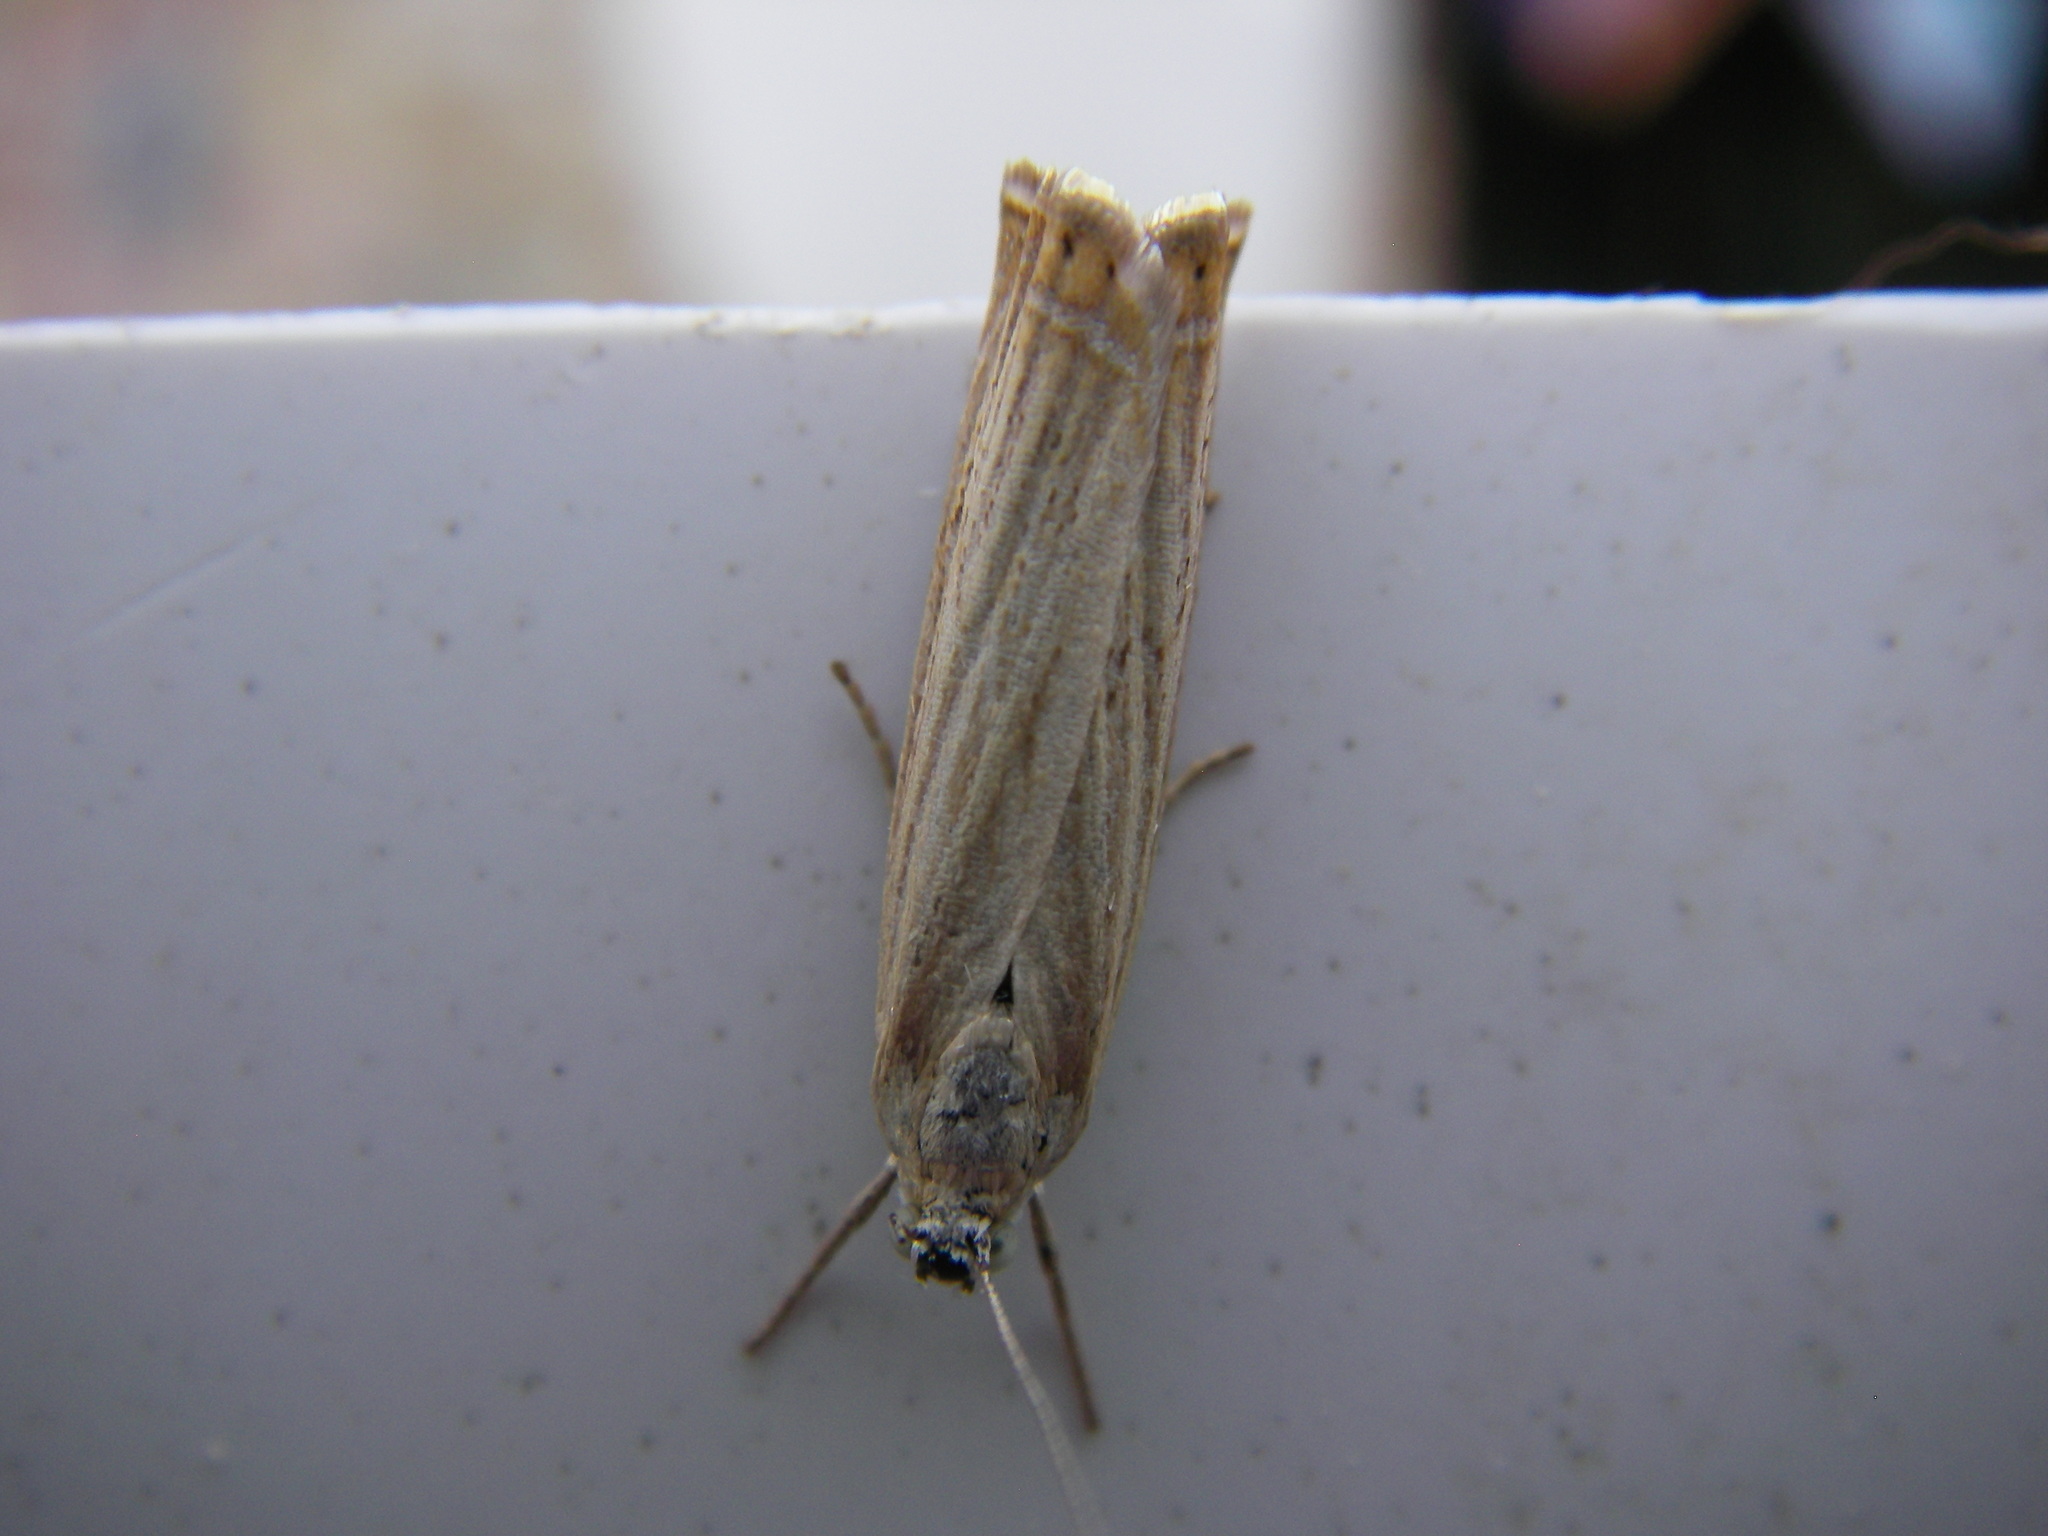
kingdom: Animalia
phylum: Arthropoda
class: Insecta
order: Lepidoptera
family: Crambidae
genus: Chrysoteuchia
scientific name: Chrysoteuchia culmella
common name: Garden grass-veneer
